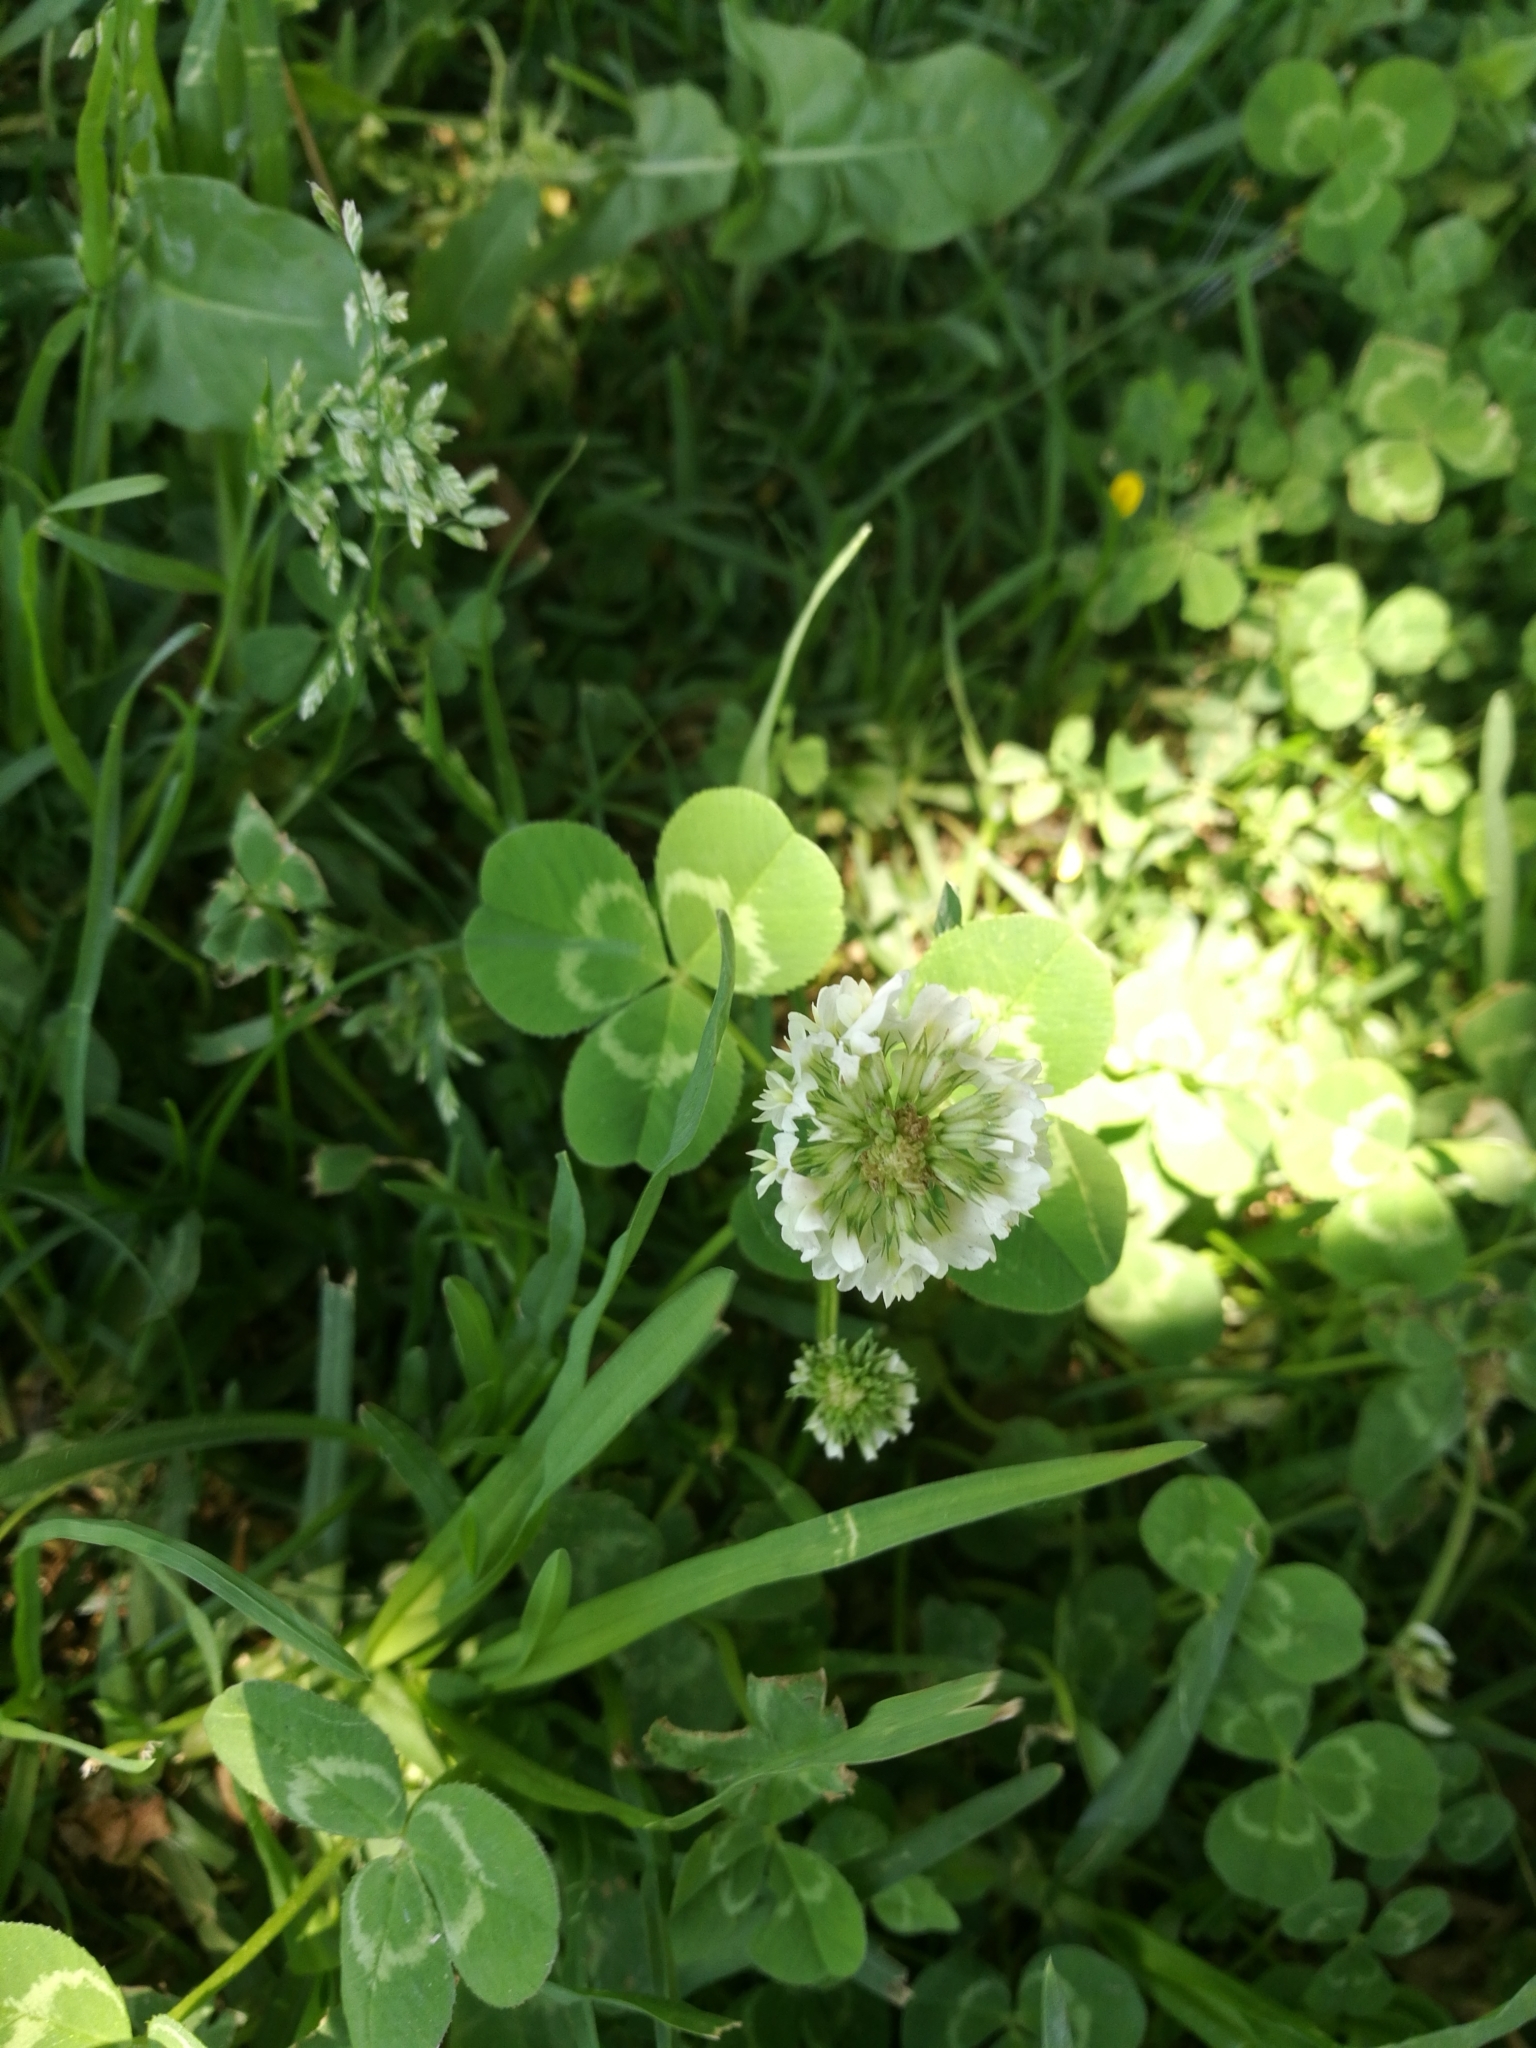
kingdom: Plantae
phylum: Tracheophyta
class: Magnoliopsida
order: Fabales
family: Fabaceae
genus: Trifolium
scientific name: Trifolium repens
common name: White clover
